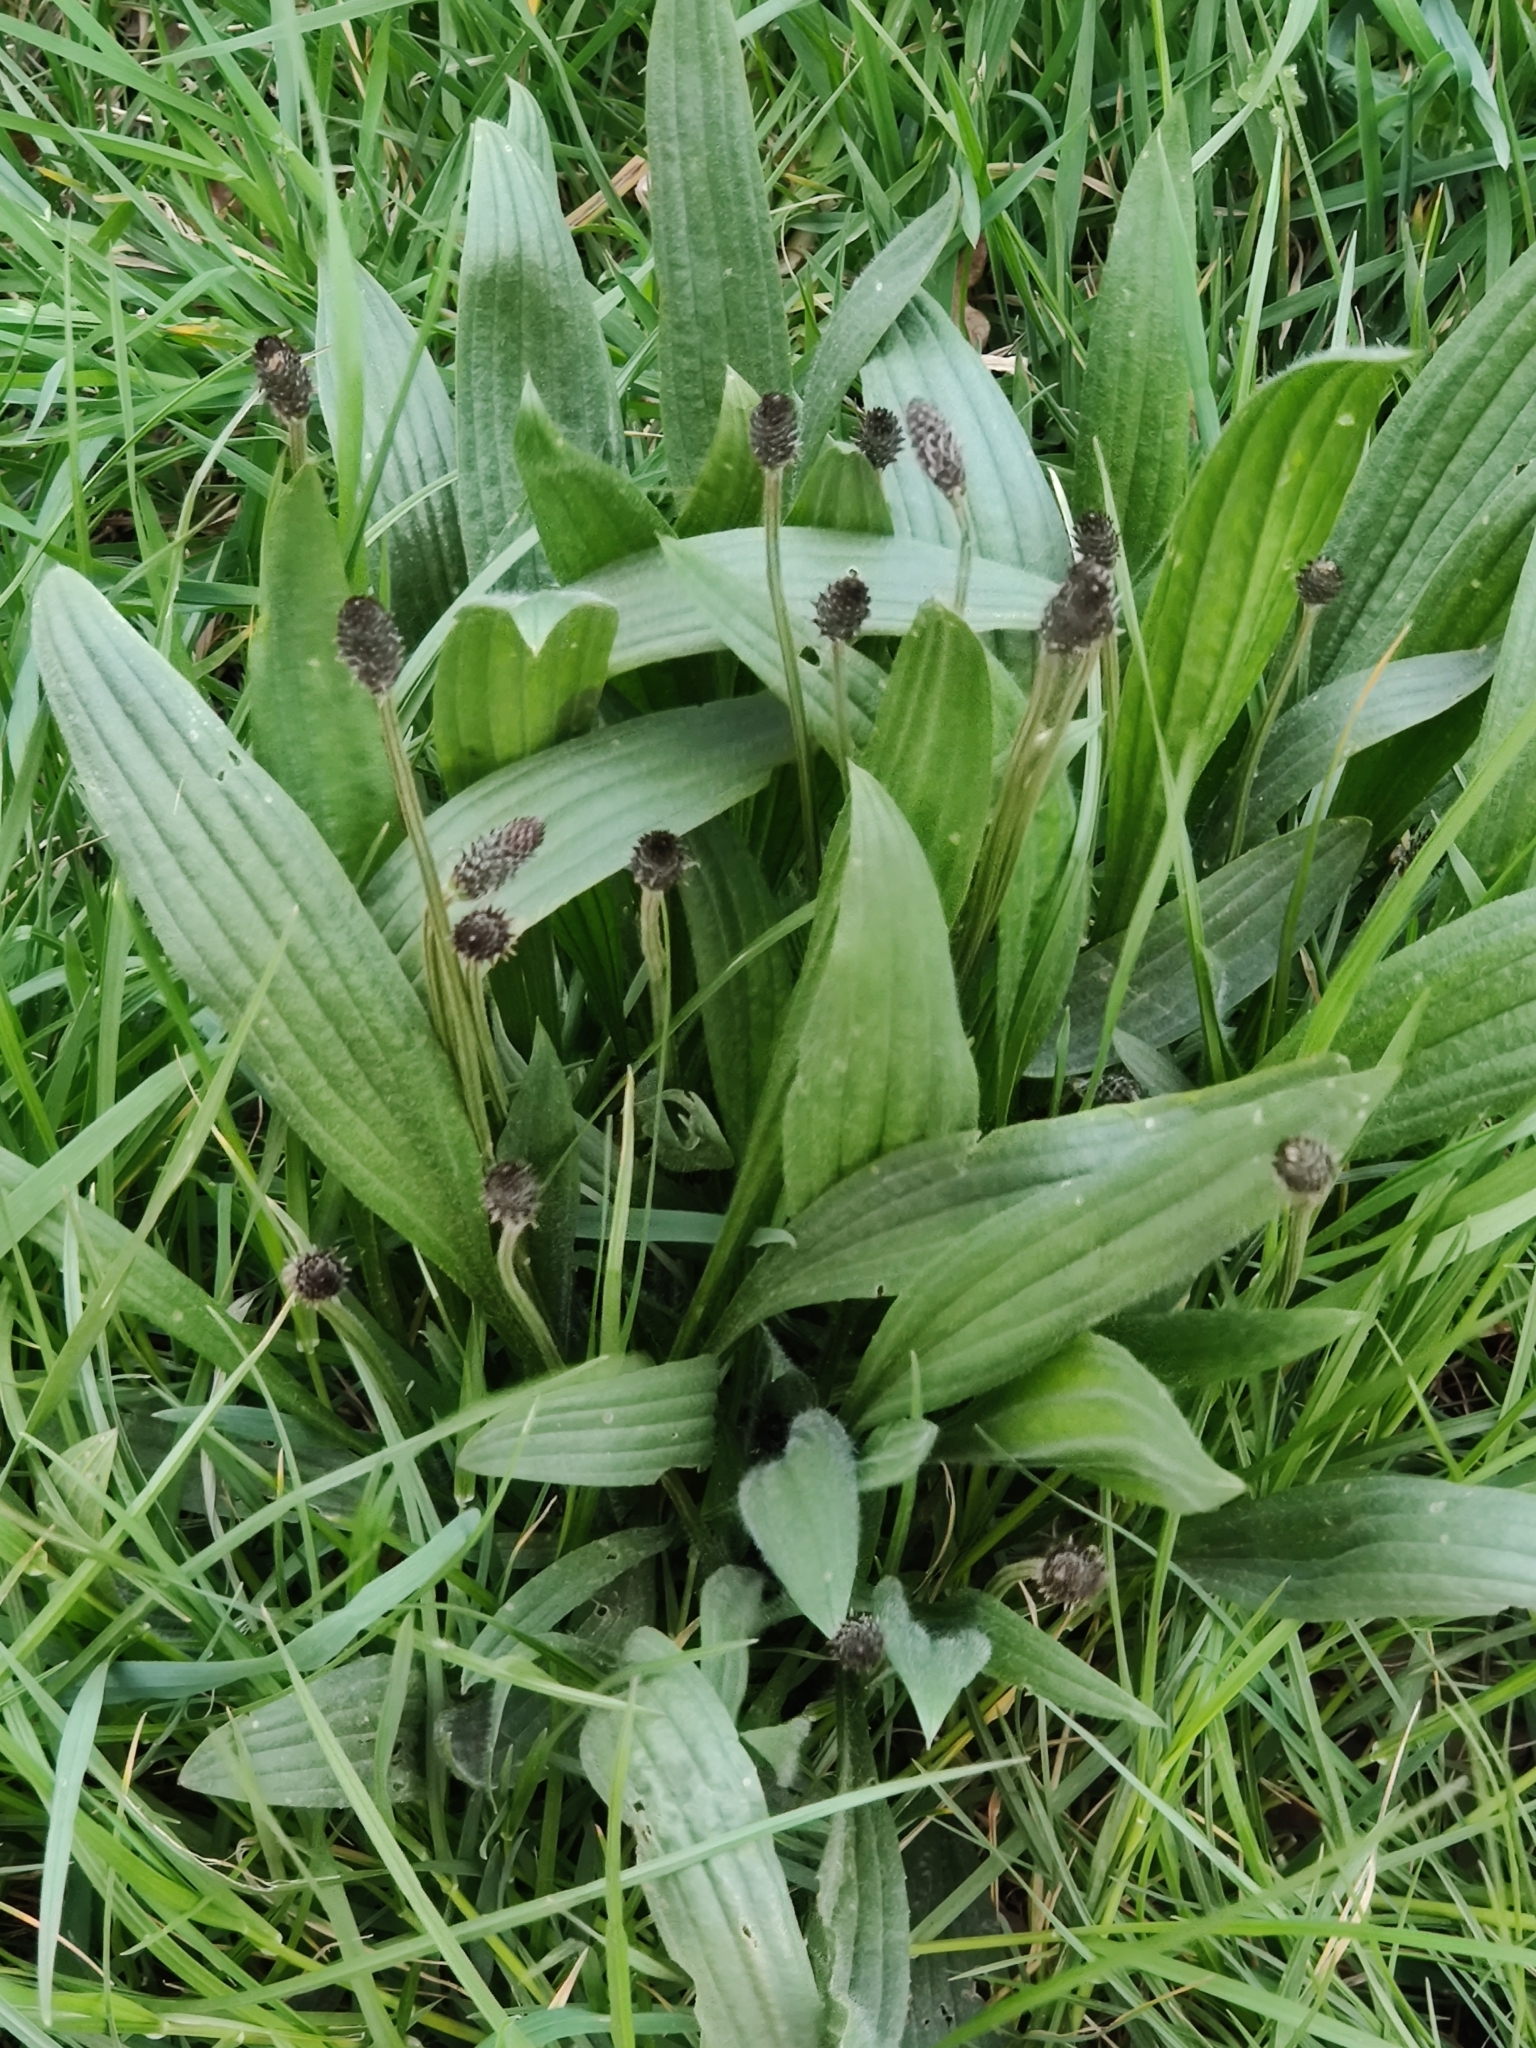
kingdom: Plantae
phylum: Tracheophyta
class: Magnoliopsida
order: Lamiales
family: Plantaginaceae
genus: Plantago
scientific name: Plantago lanceolata
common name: Ribwort plantain
